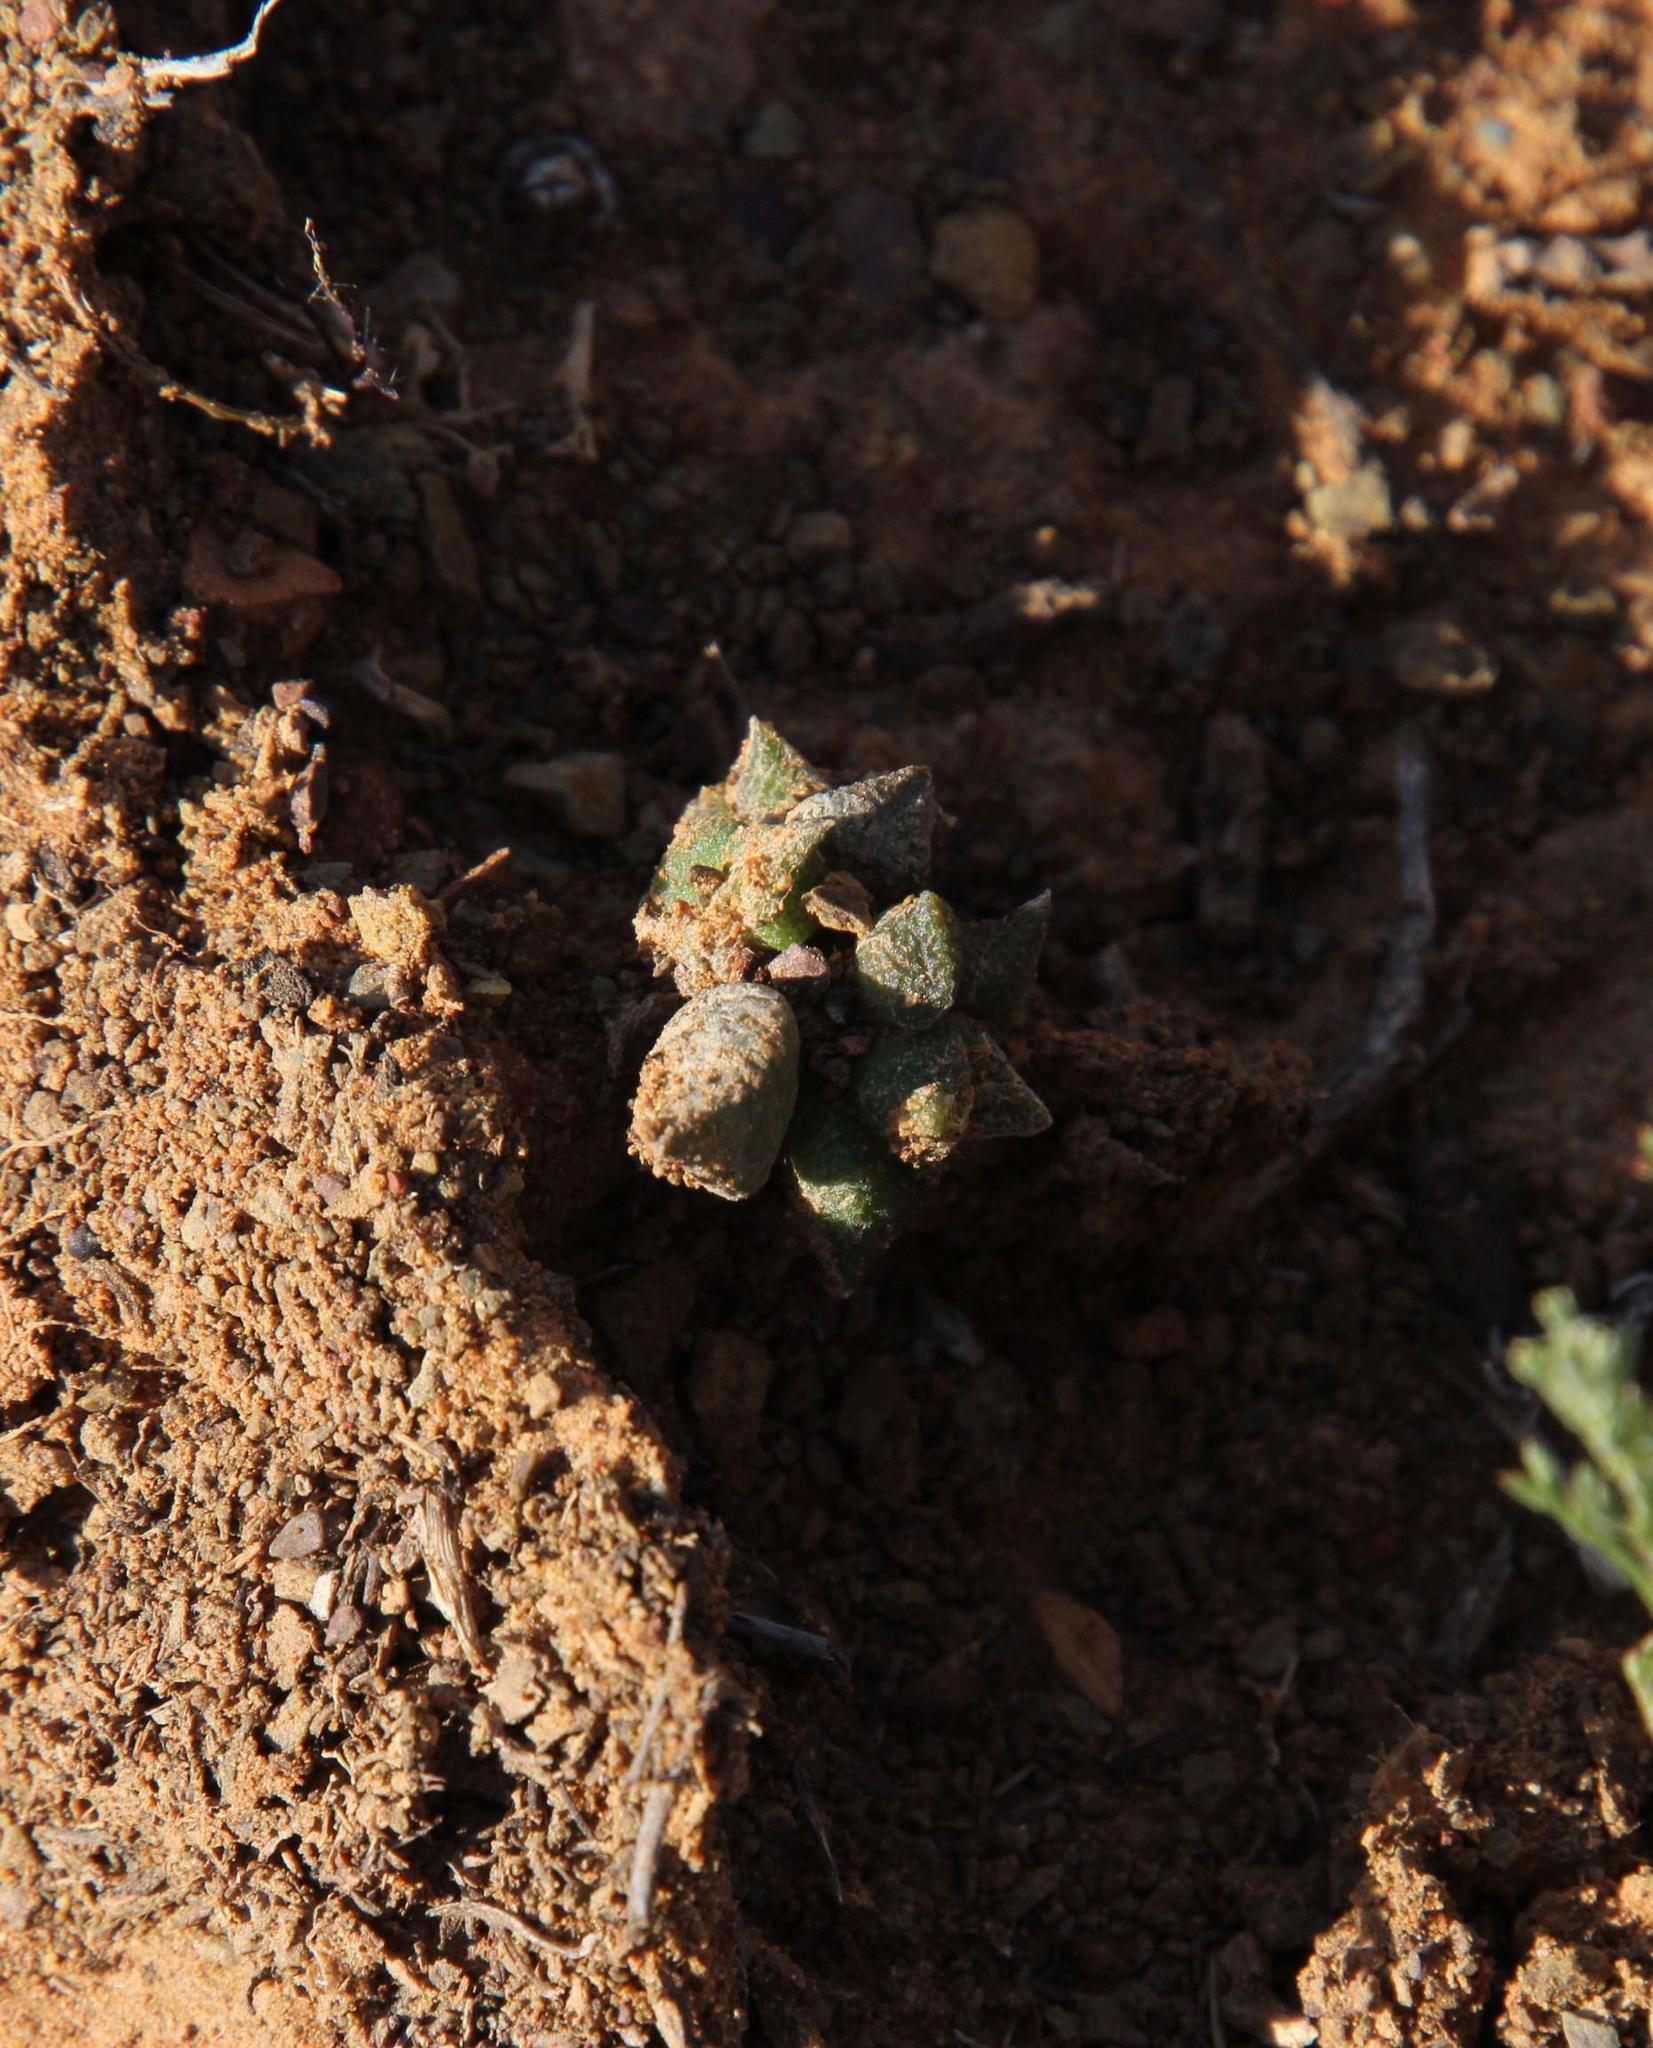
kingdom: Plantae
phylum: Tracheophyta
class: Magnoliopsida
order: Caryophyllales
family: Anacampserotaceae
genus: Anacampseros
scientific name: Anacampseros arachnoides
